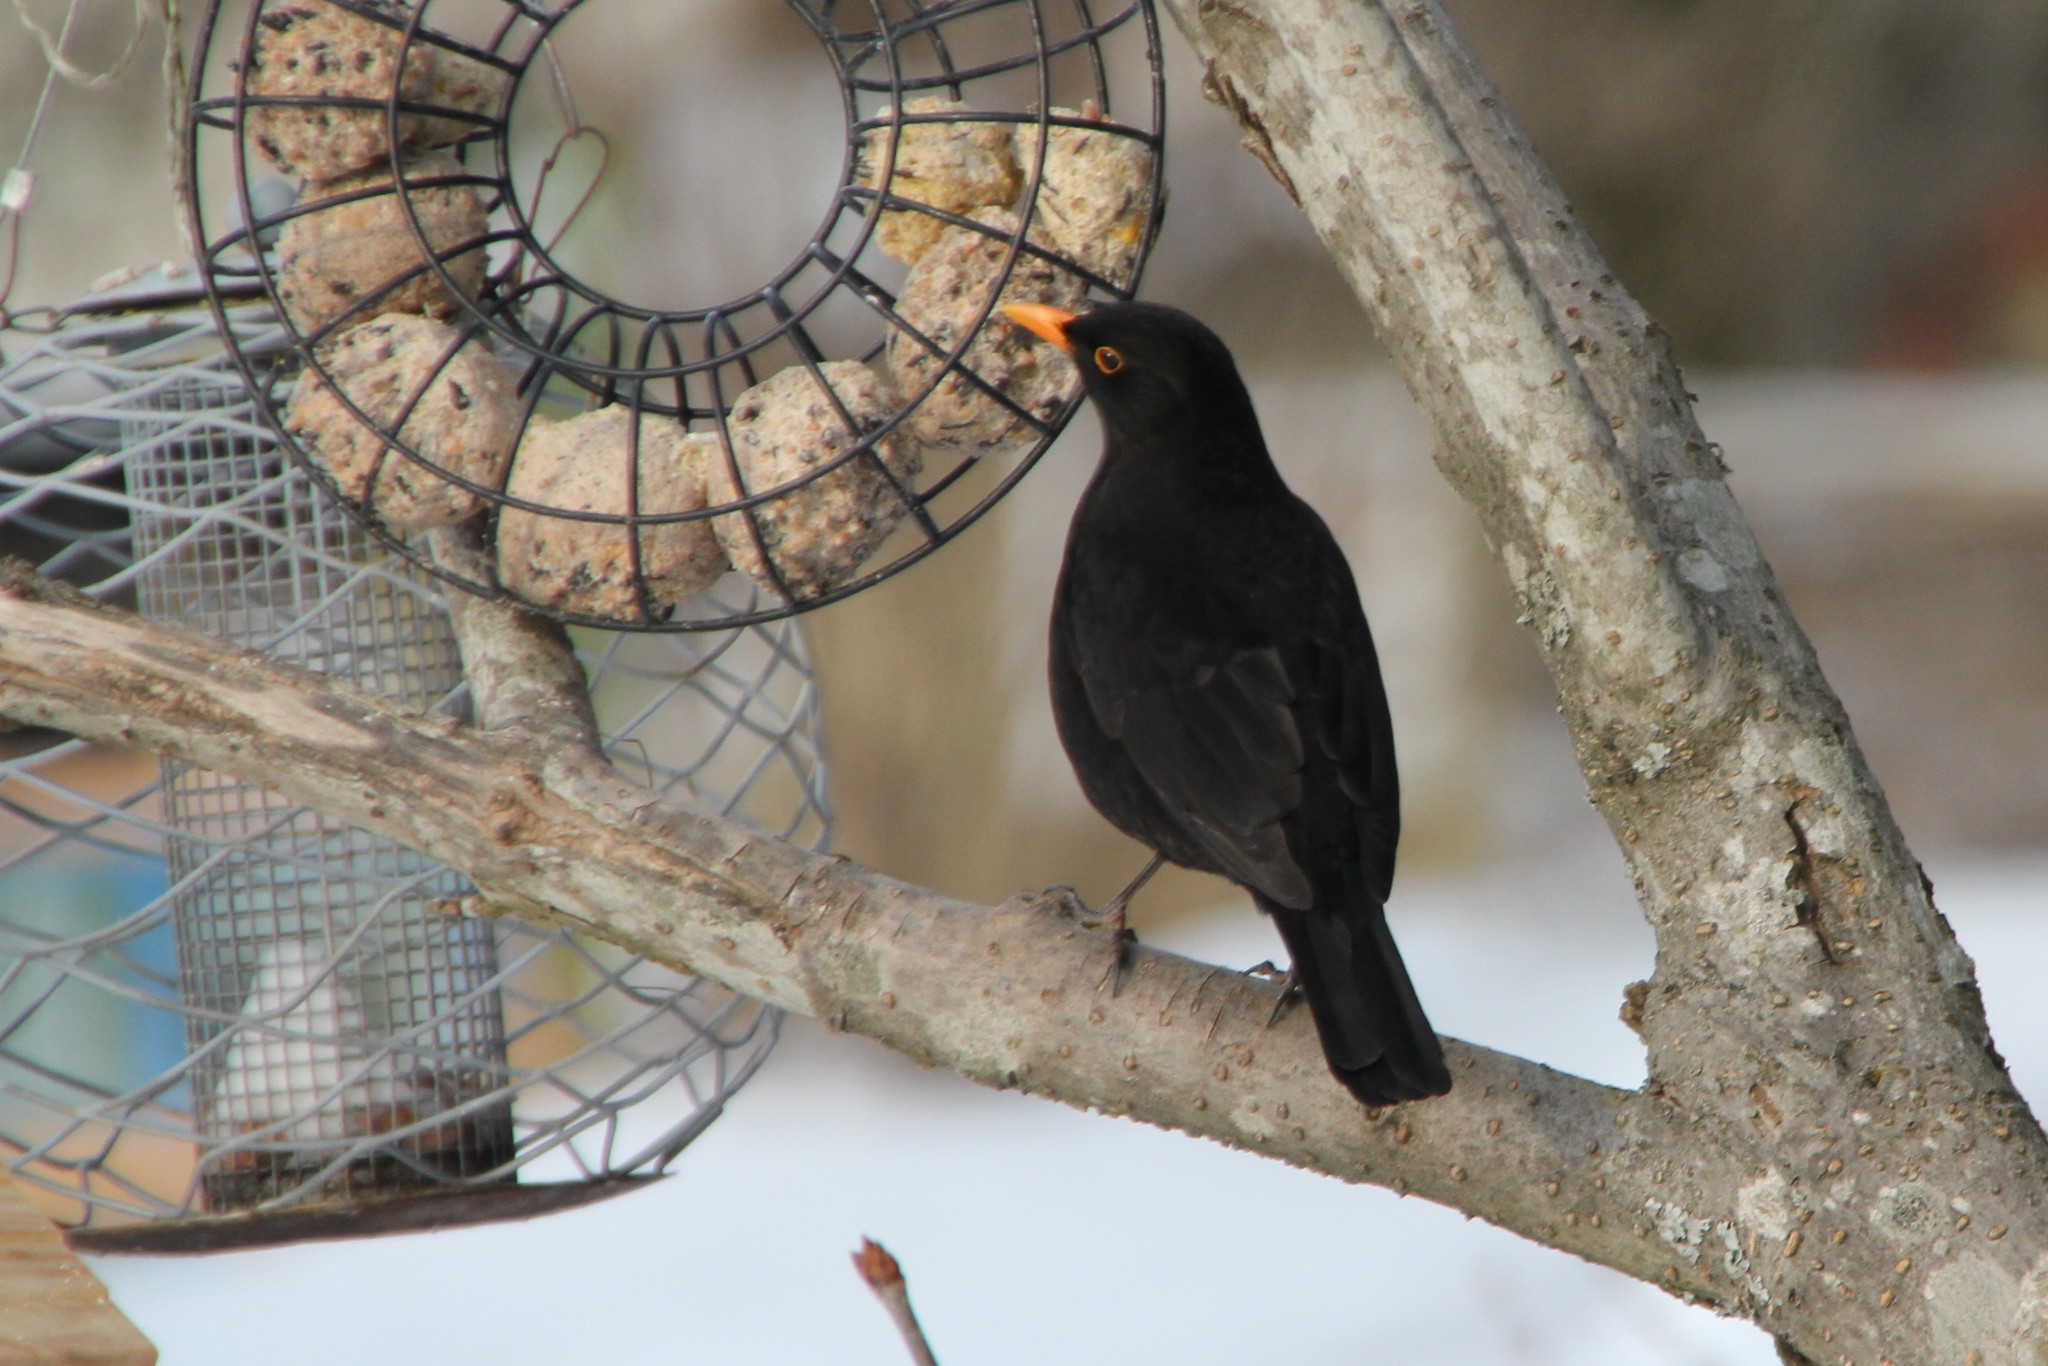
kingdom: Animalia
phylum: Chordata
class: Aves
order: Passeriformes
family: Turdidae
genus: Turdus
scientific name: Turdus merula
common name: Common blackbird
